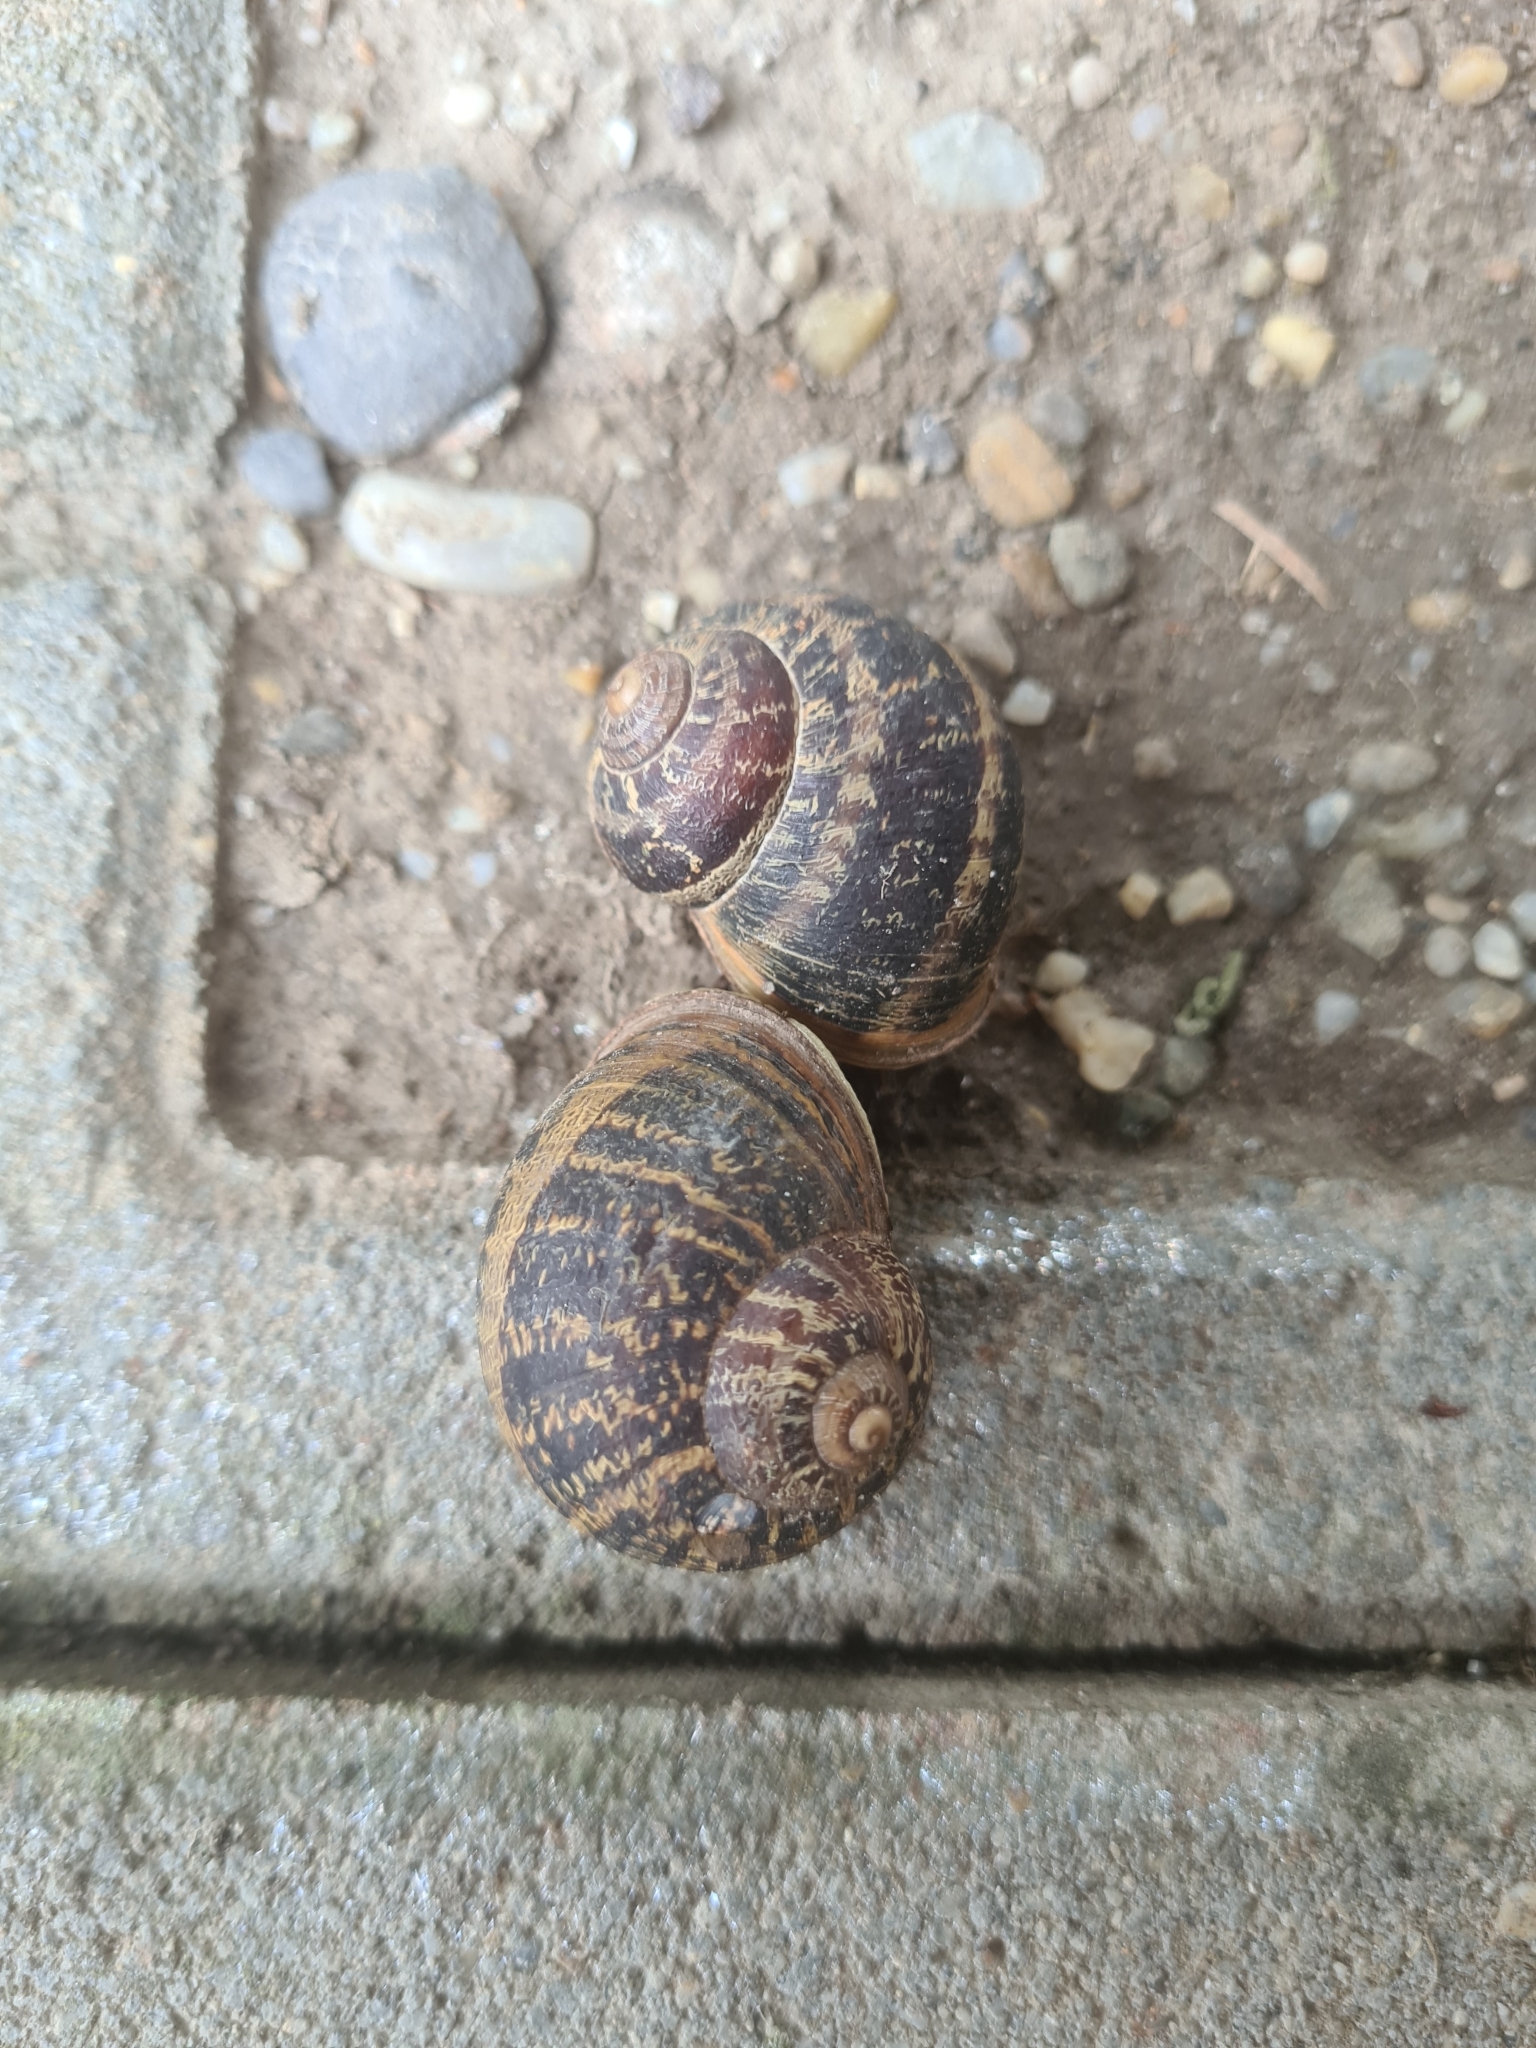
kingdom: Animalia
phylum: Mollusca
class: Gastropoda
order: Stylommatophora
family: Helicidae
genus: Cornu
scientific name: Cornu aspersum
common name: Brown garden snail
